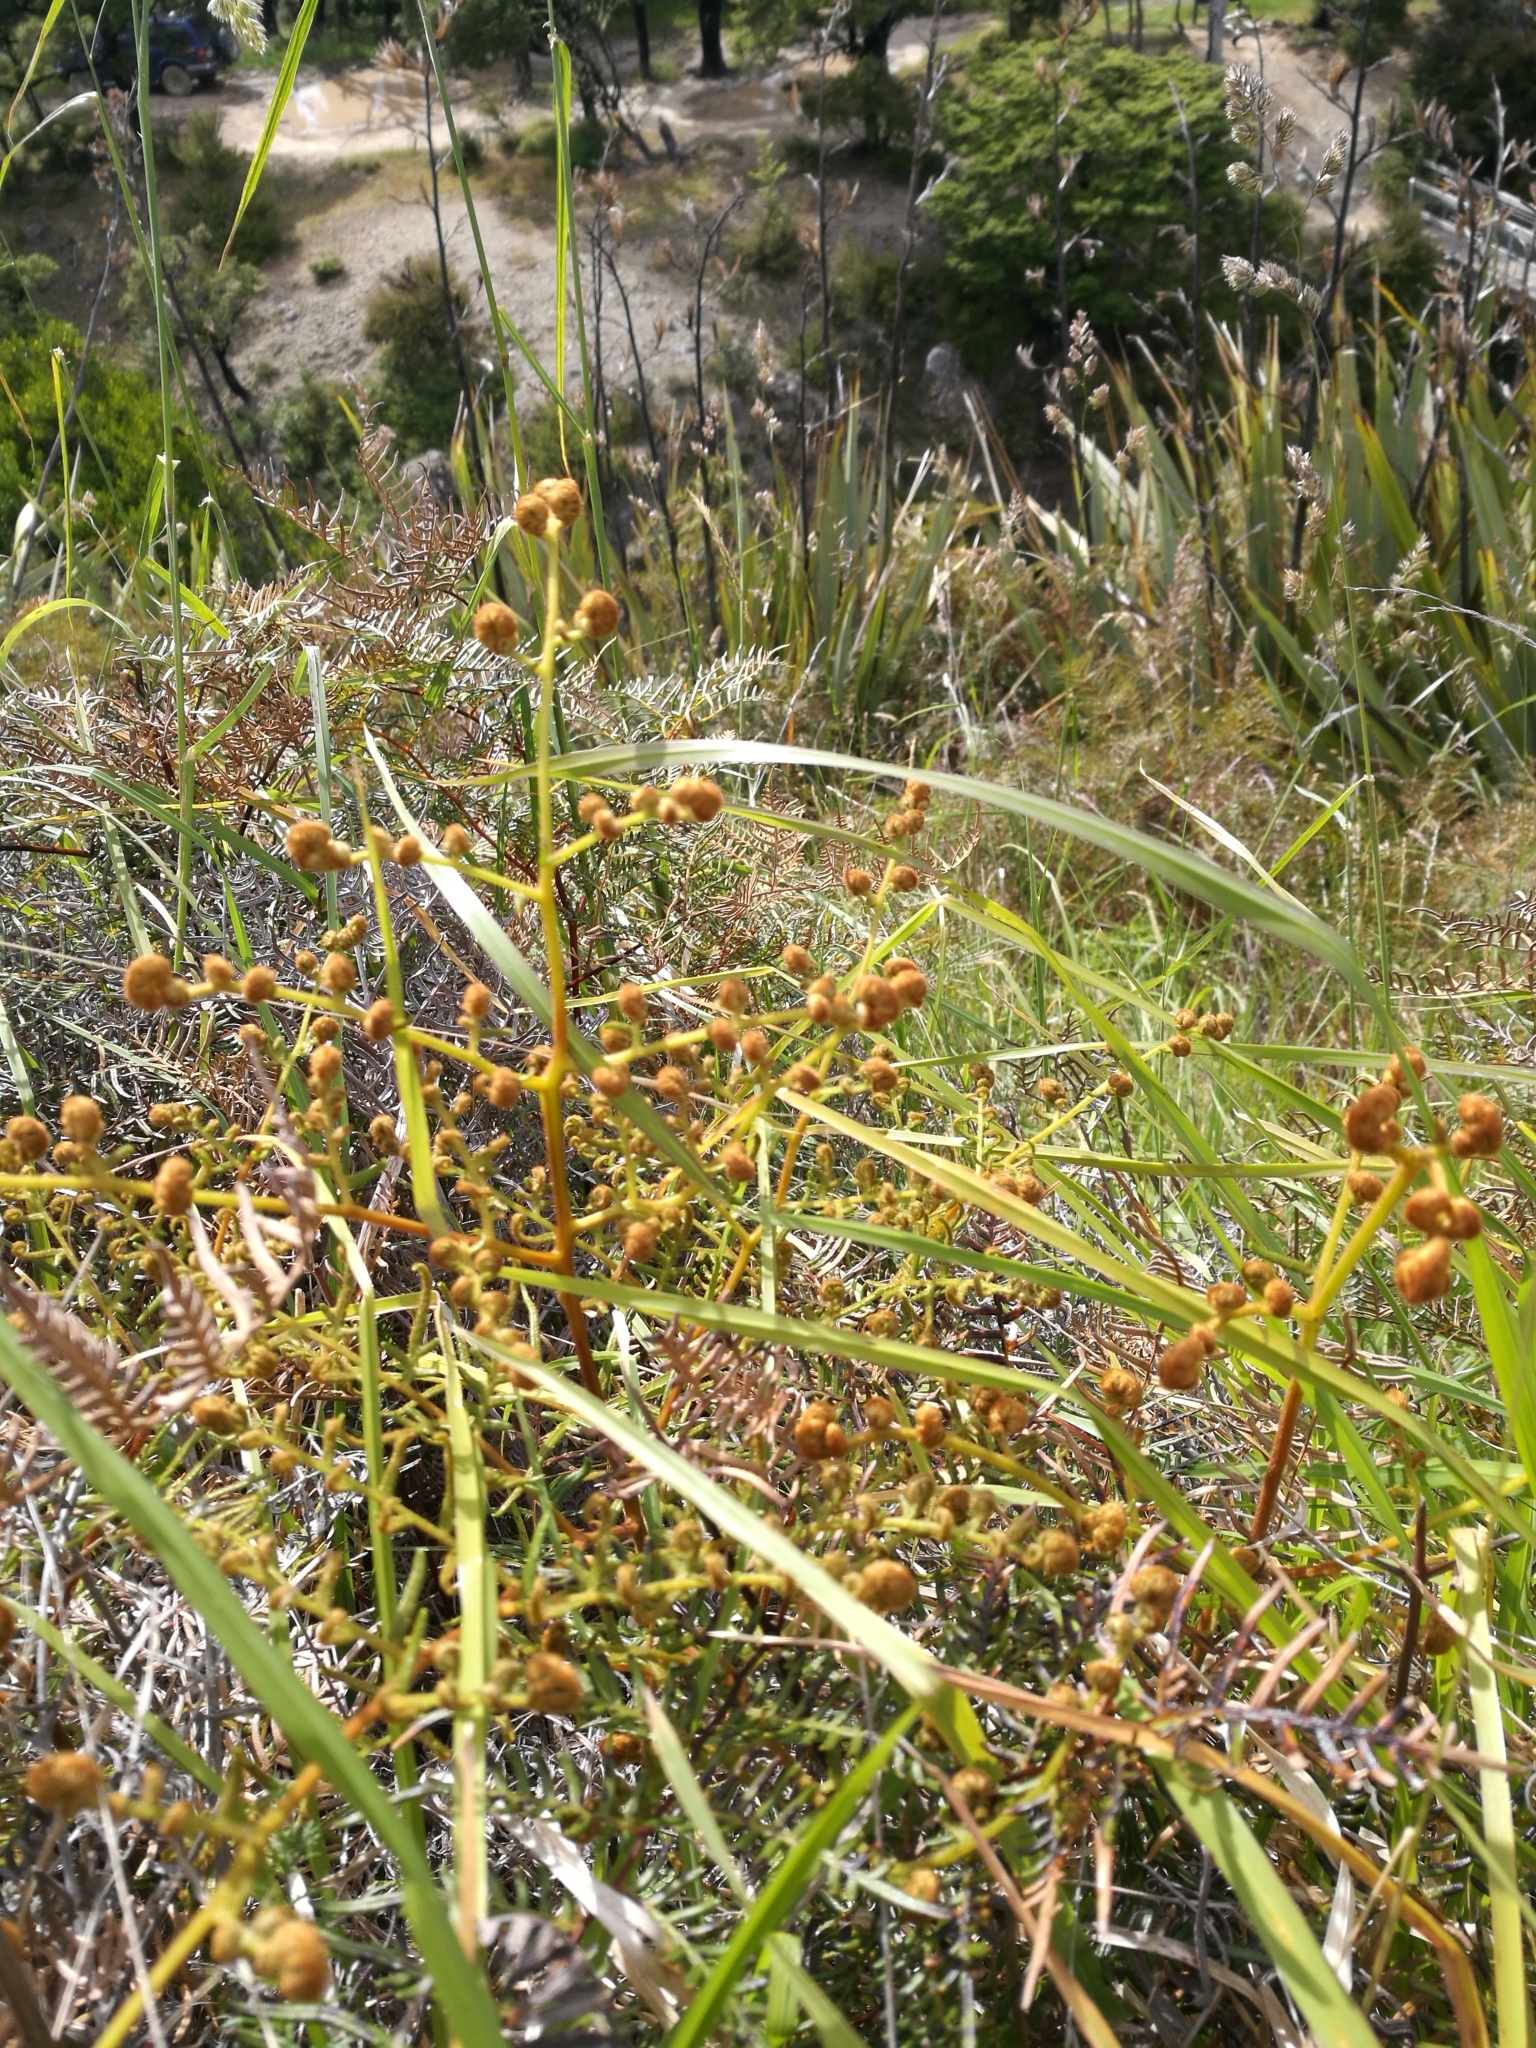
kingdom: Plantae
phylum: Tracheophyta
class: Polypodiopsida
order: Polypodiales
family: Dennstaedtiaceae
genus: Pteridium
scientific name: Pteridium esculentum
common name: Bracken fern
